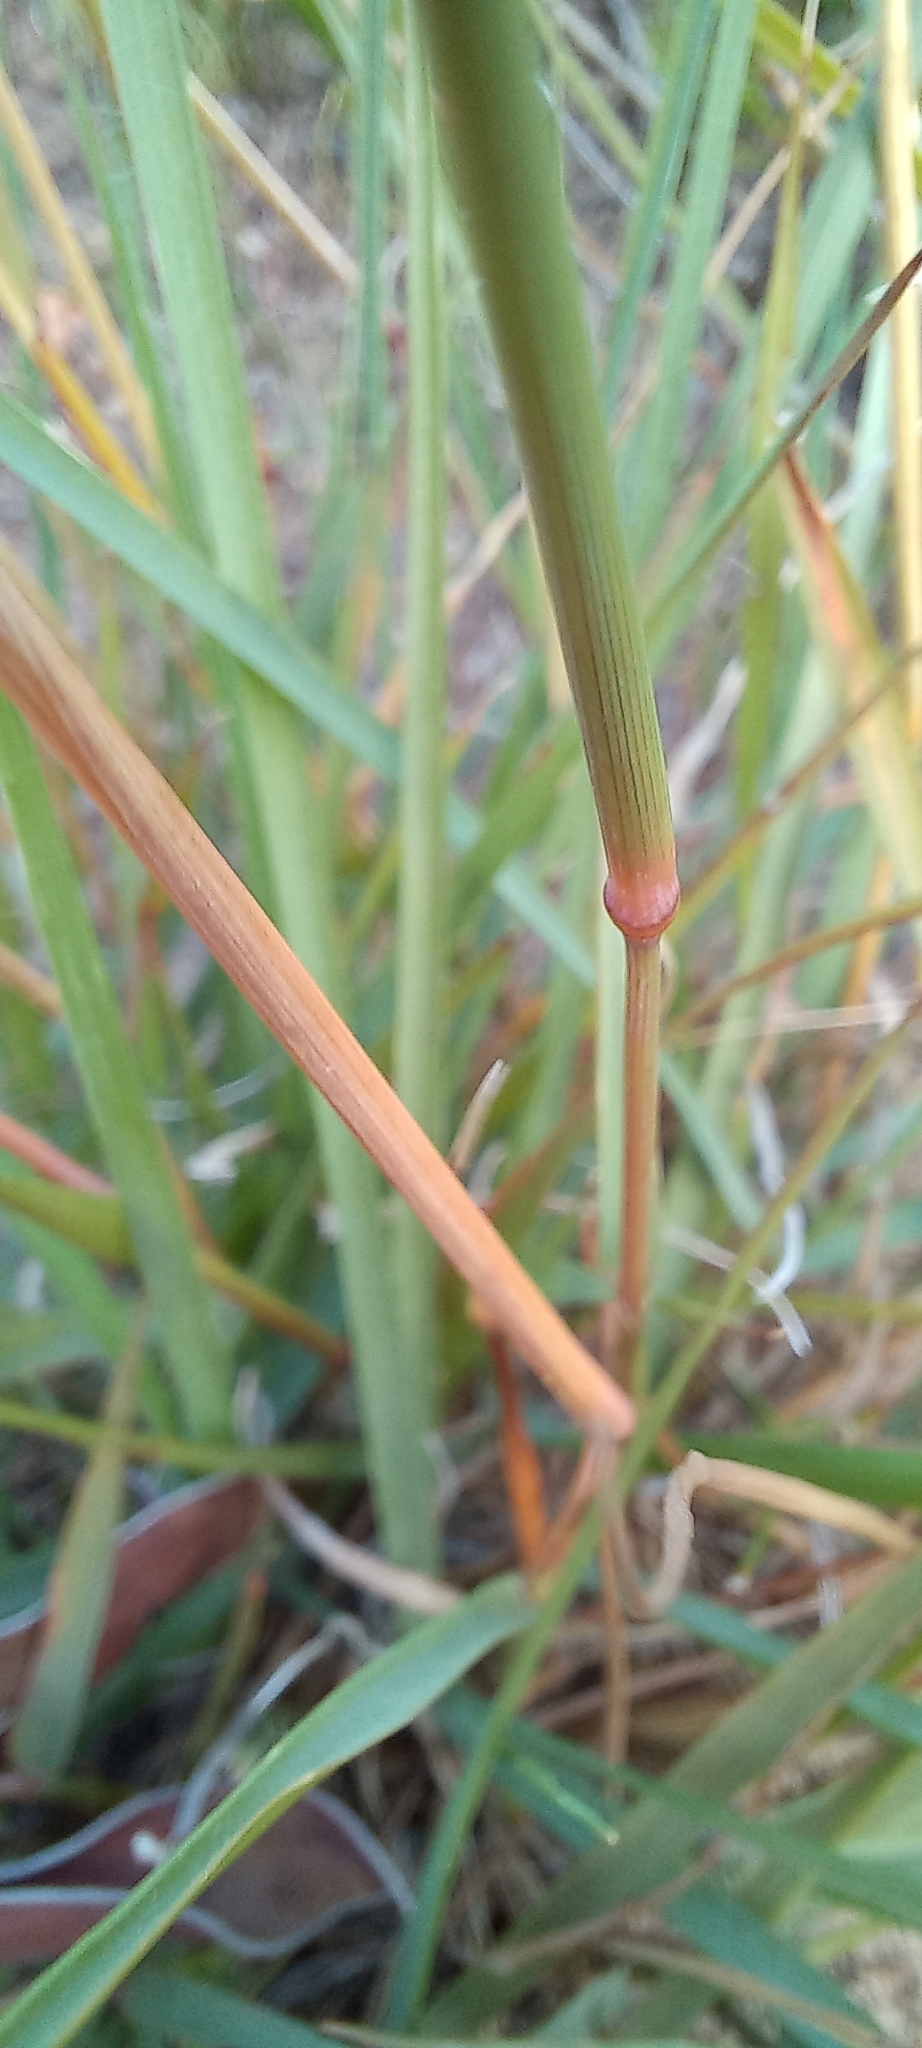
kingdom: Plantae
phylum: Tracheophyta
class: Liliopsida
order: Poales
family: Poaceae
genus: Eragrostis
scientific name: Eragrostis capensis
